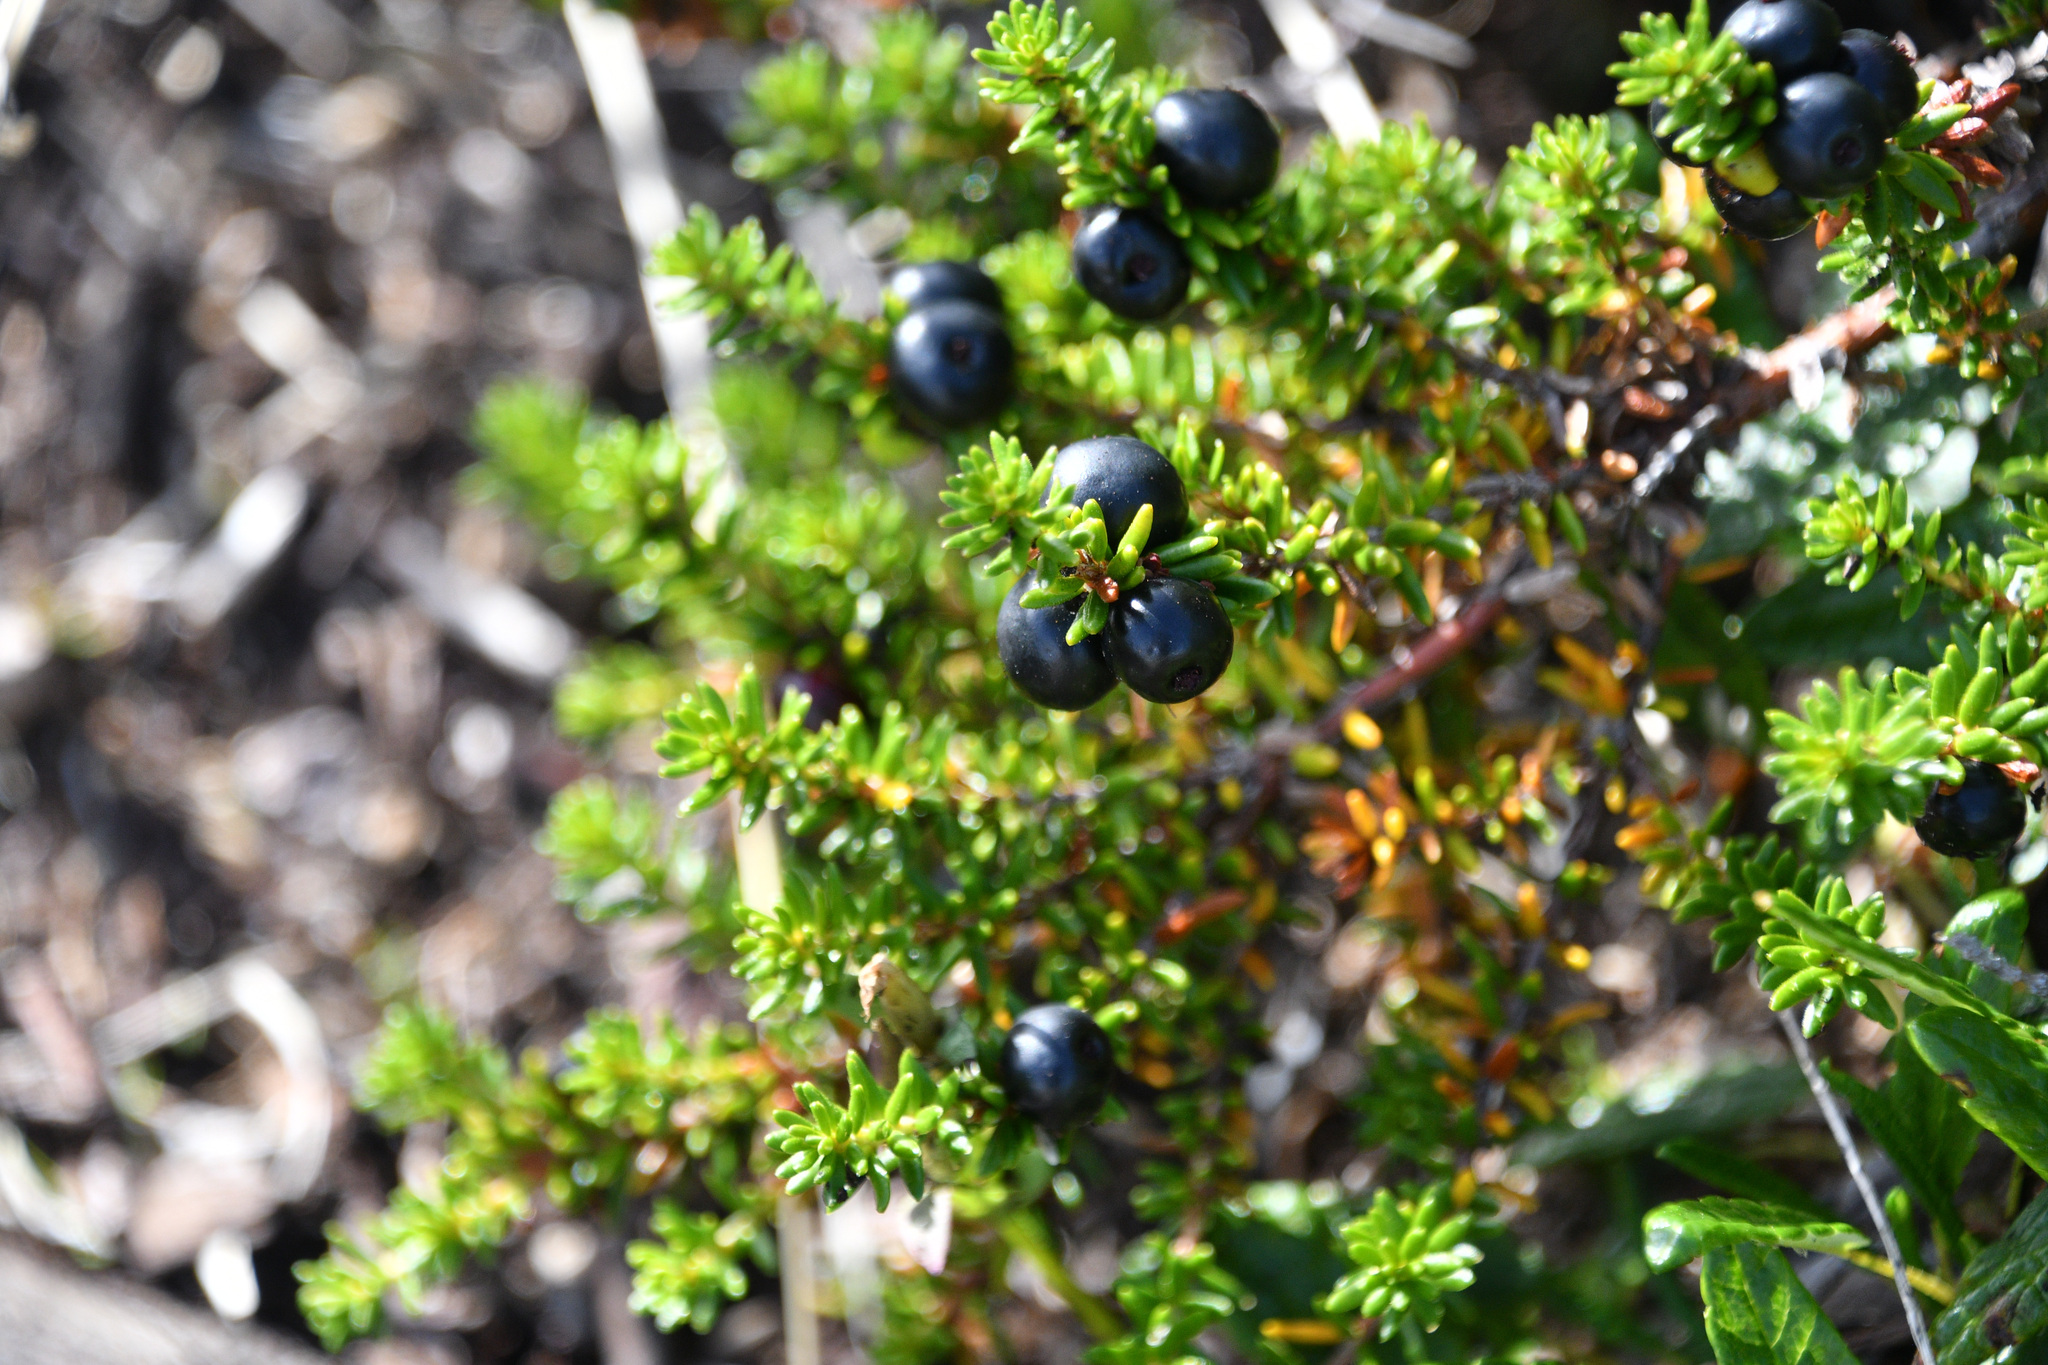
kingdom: Plantae
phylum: Tracheophyta
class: Magnoliopsida
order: Ericales
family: Ericaceae
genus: Empetrum
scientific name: Empetrum nigrum
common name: Black crowberry
